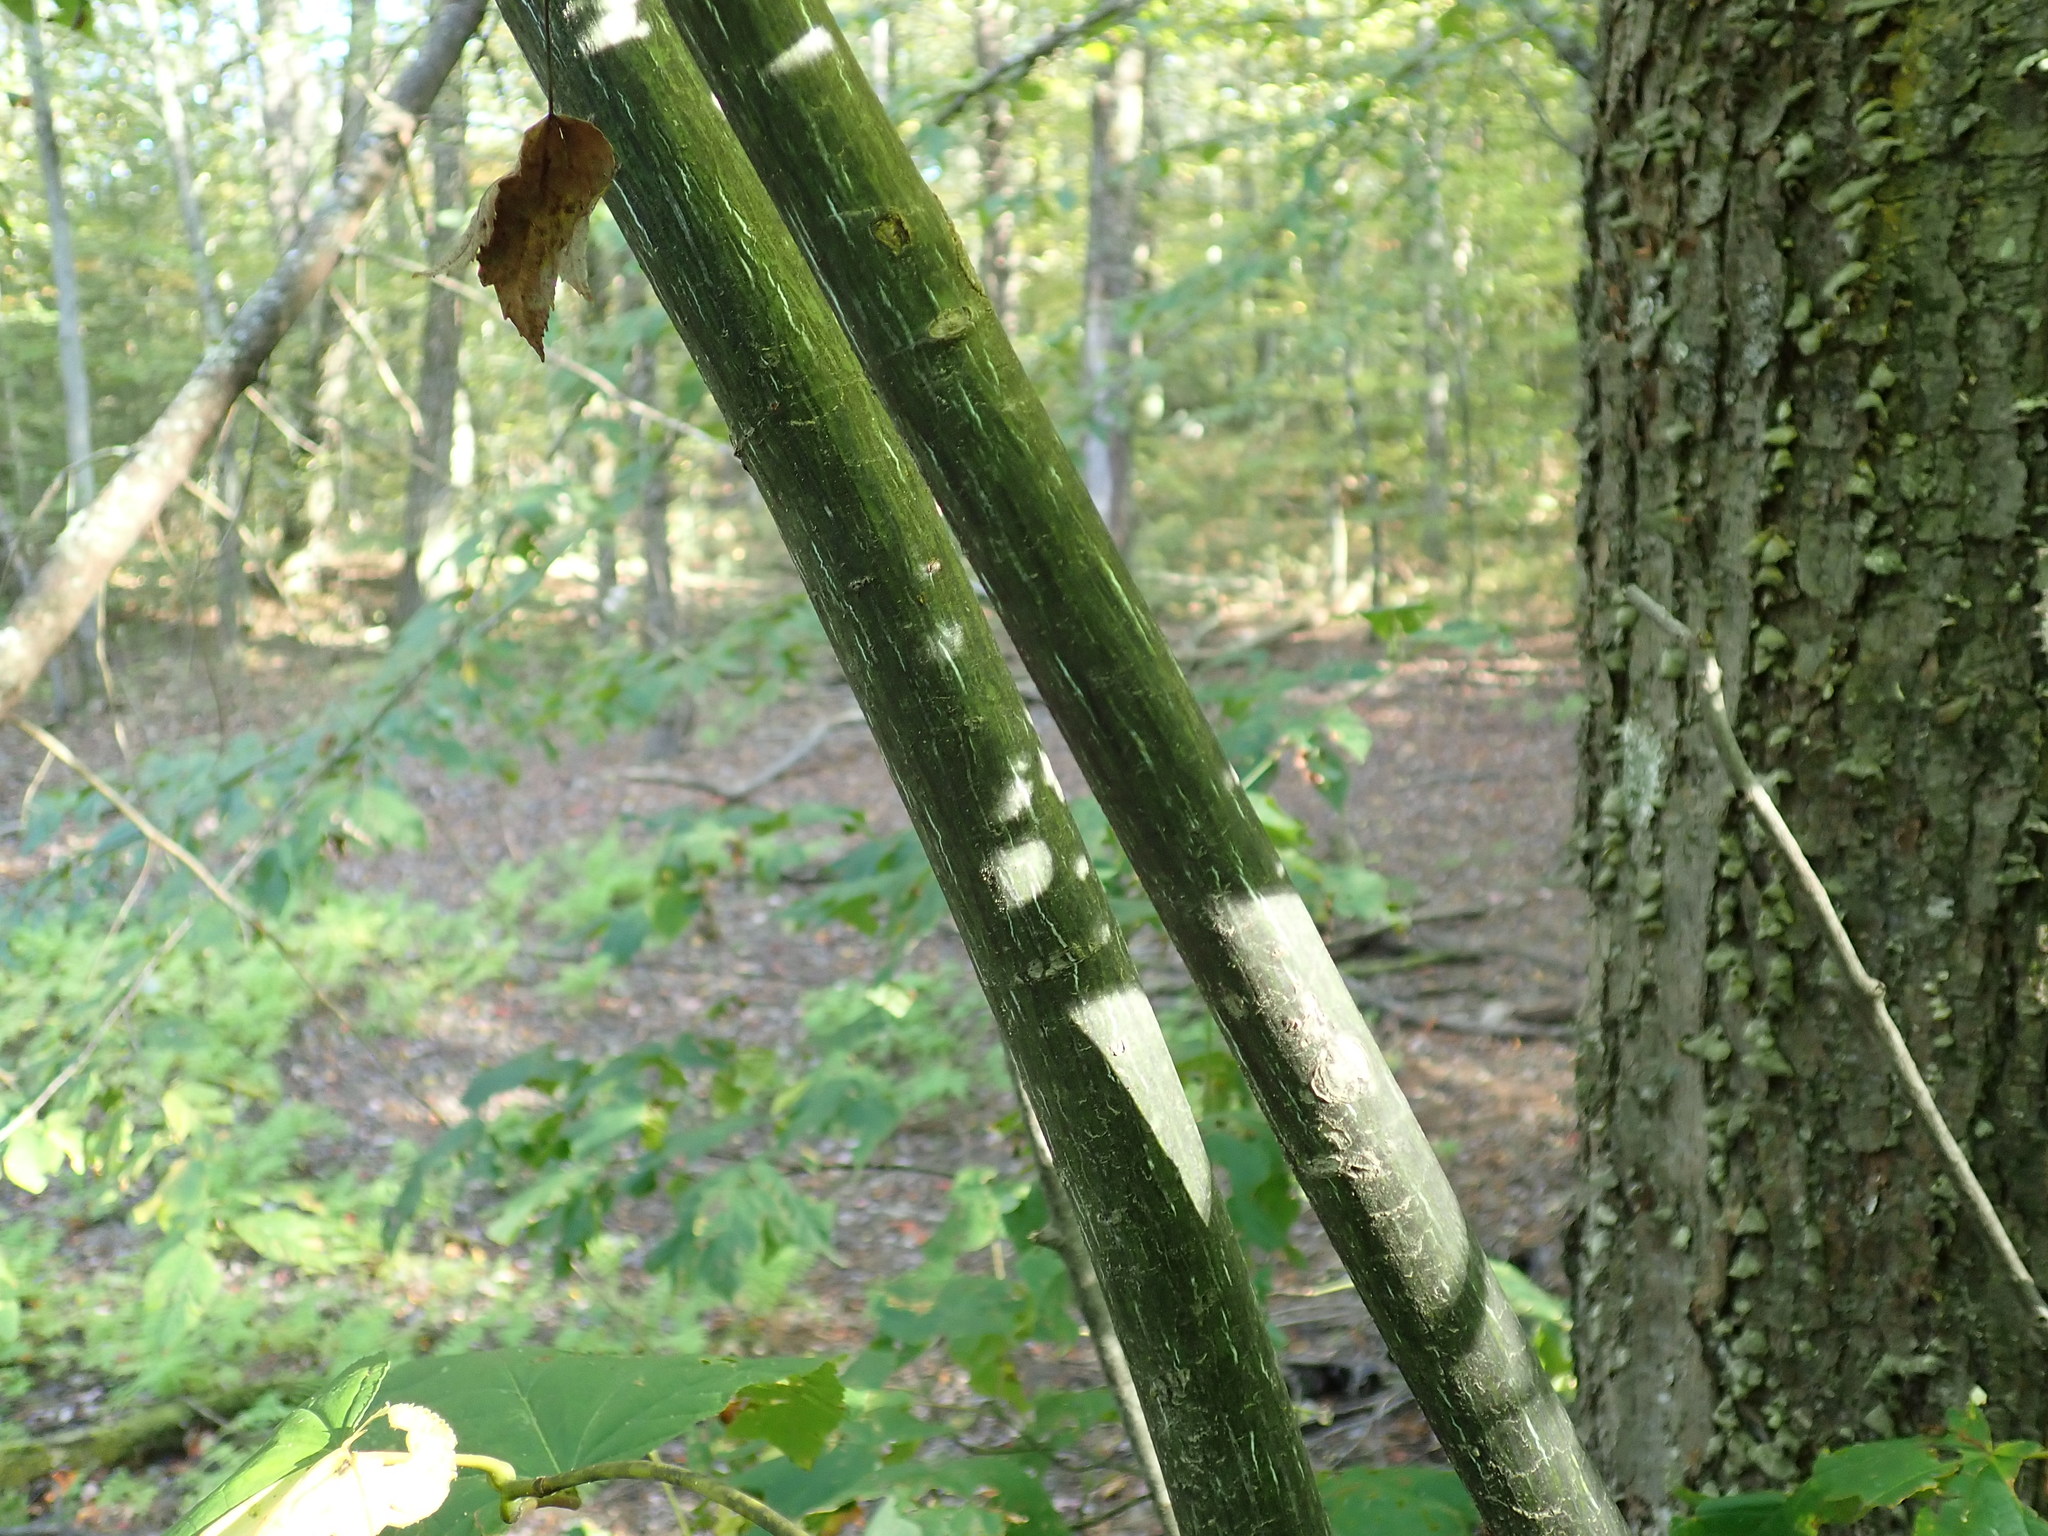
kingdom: Plantae
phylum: Tracheophyta
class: Magnoliopsida
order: Sapindales
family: Sapindaceae
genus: Acer
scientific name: Acer pensylvanicum
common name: Moosewood
